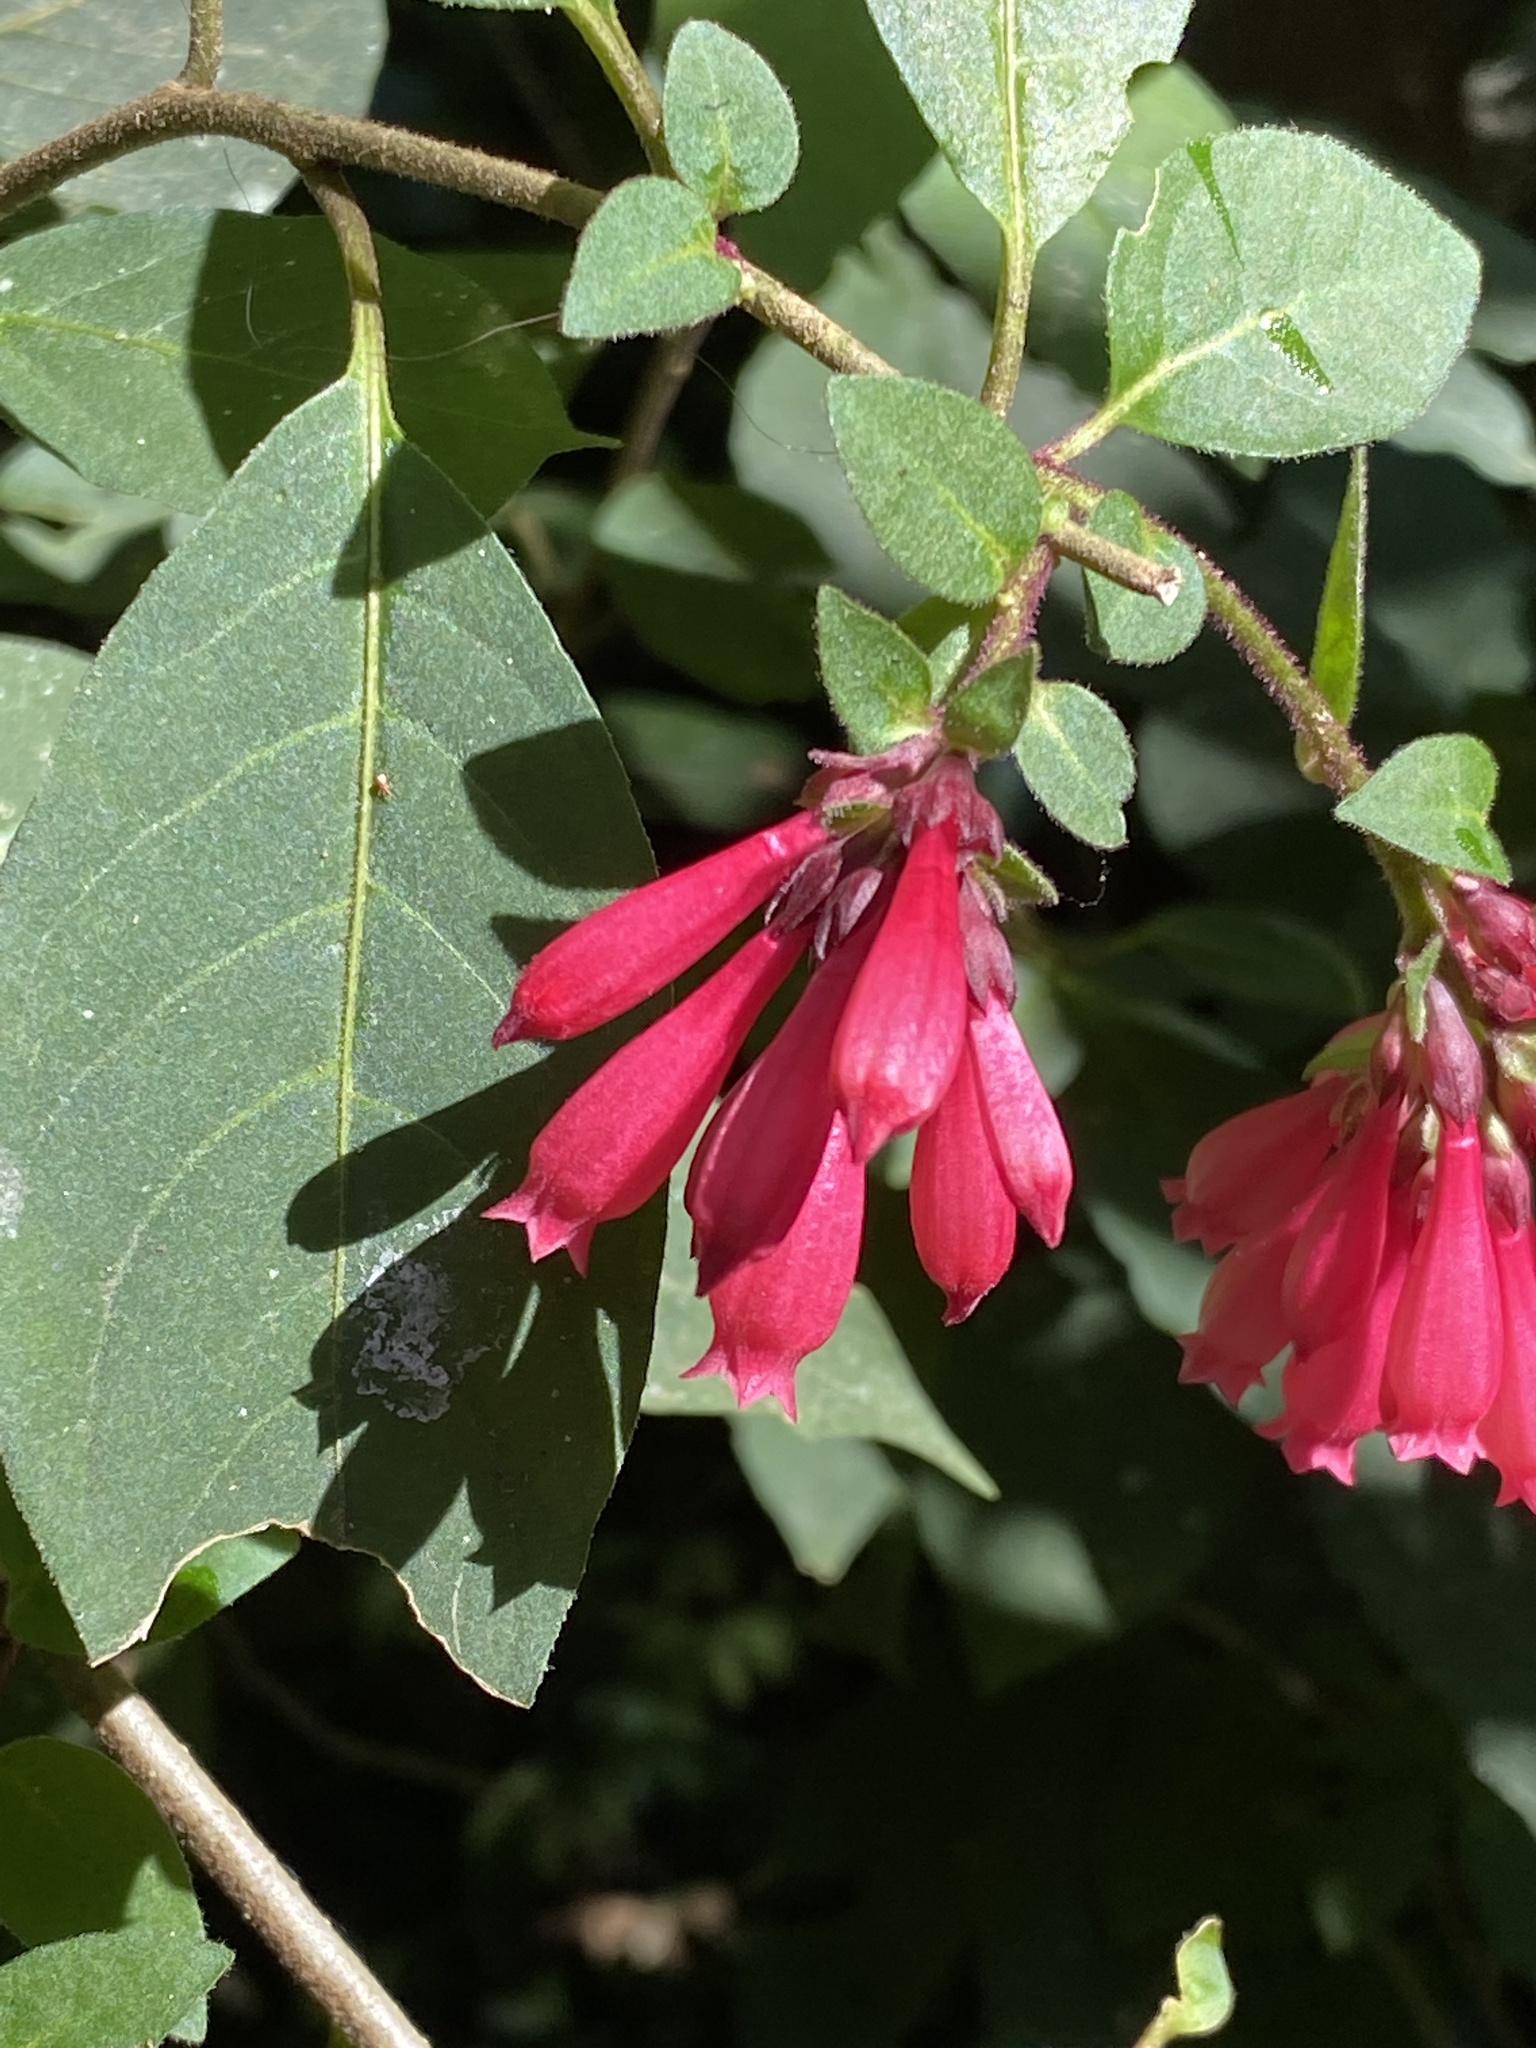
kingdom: Plantae
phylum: Tracheophyta
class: Magnoliopsida
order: Solanales
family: Solanaceae
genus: Cestrum
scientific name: Cestrum elegans
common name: Crimson cestrum
